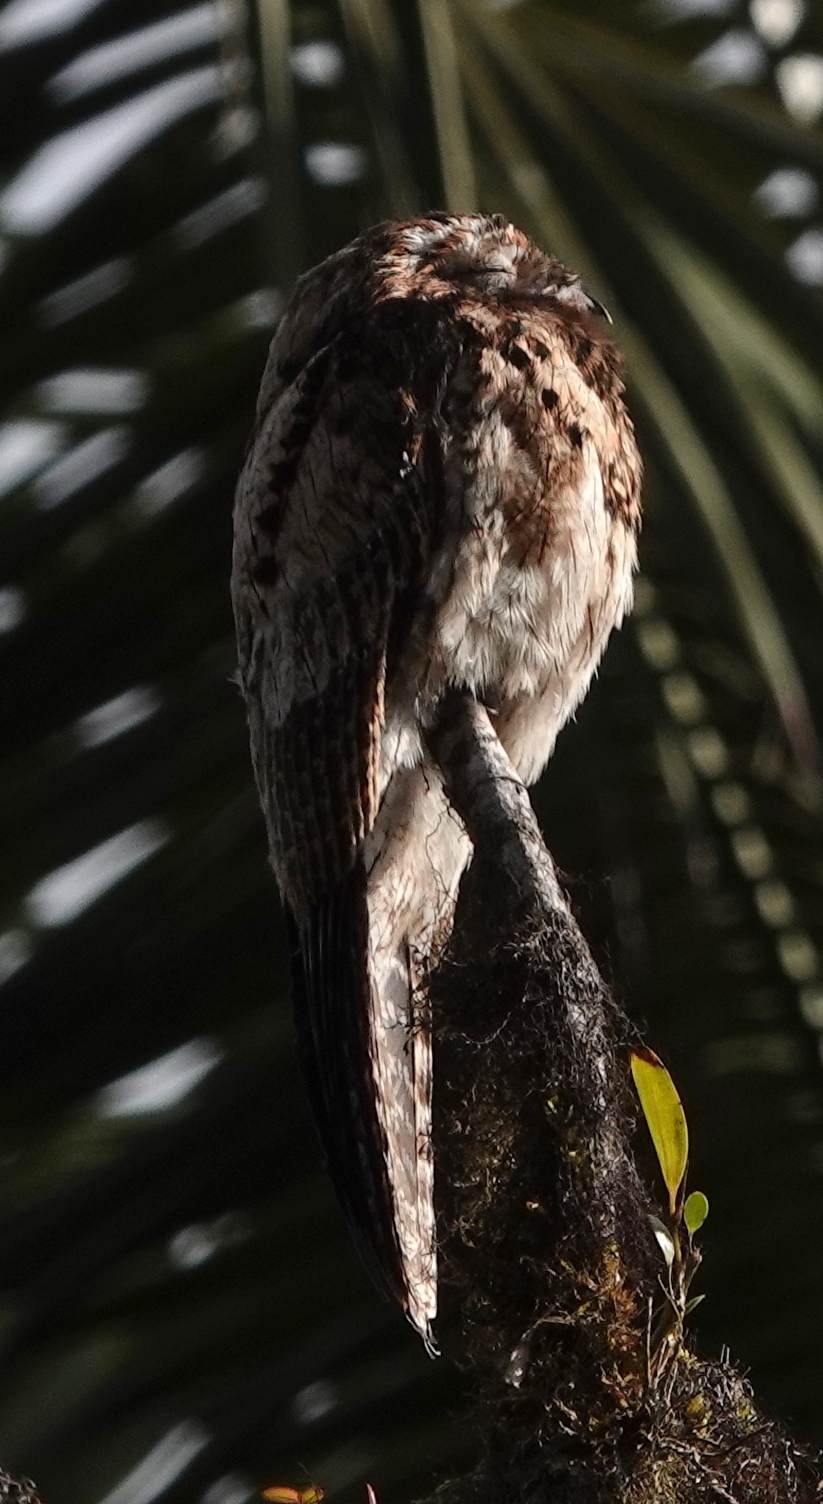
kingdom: Animalia
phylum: Chordata
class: Aves
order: Nyctibiiformes
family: Nyctibiidae
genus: Nyctibius
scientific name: Nyctibius griseus
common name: Common potoo
